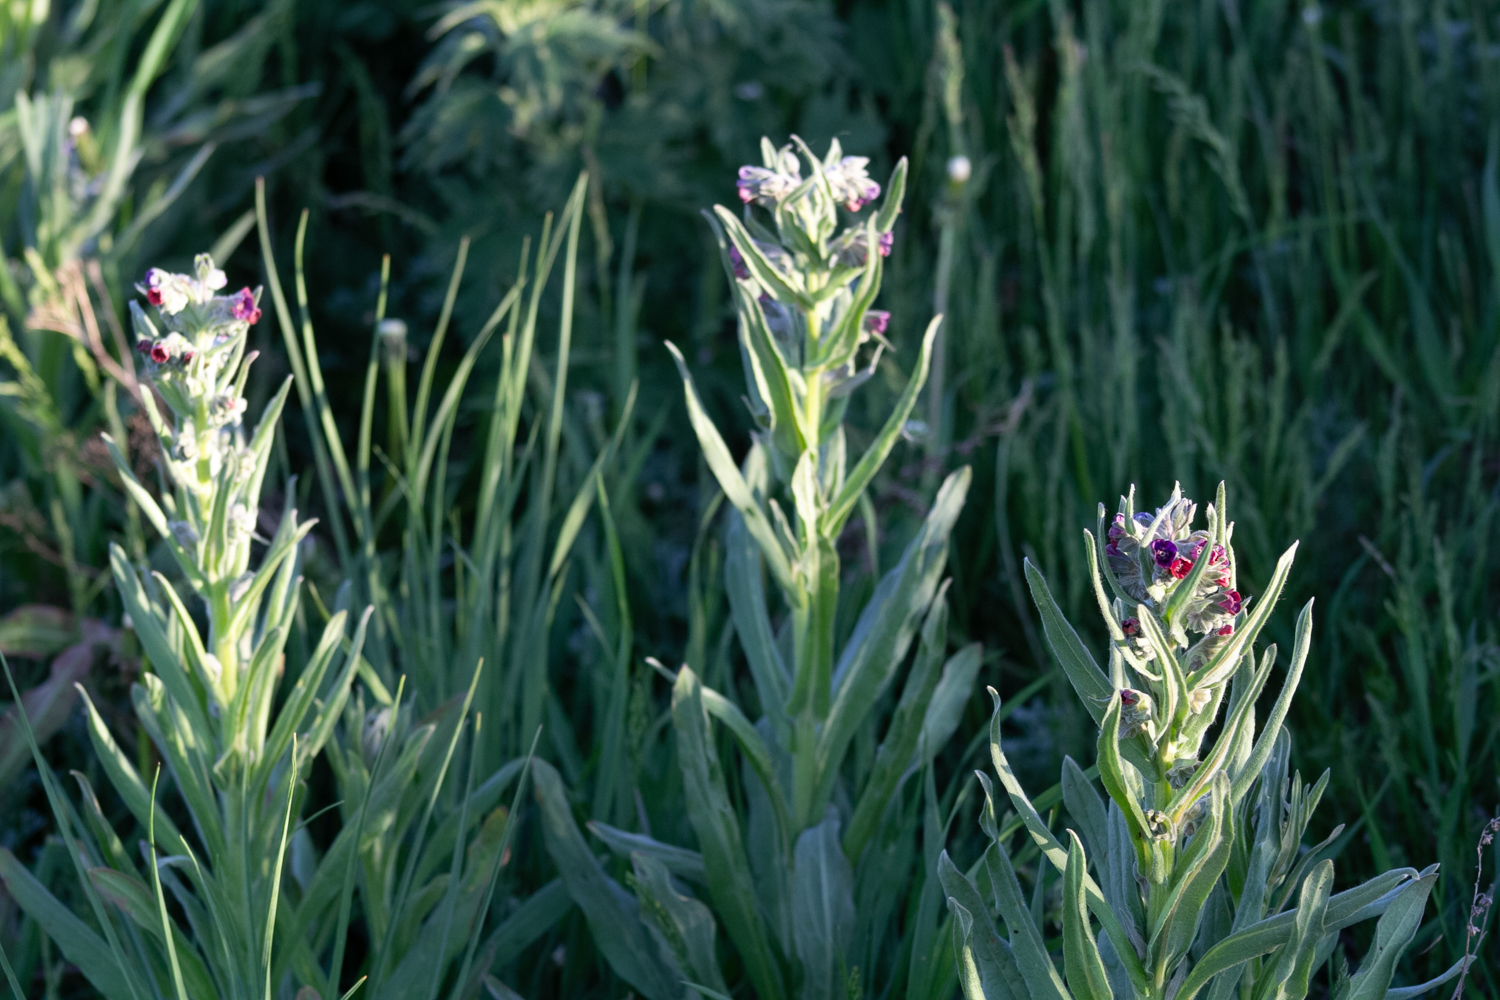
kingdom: Plantae
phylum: Tracheophyta
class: Magnoliopsida
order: Boraginales
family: Boraginaceae
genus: Cynoglossum
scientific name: Cynoglossum officinale
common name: Hound's-tongue
